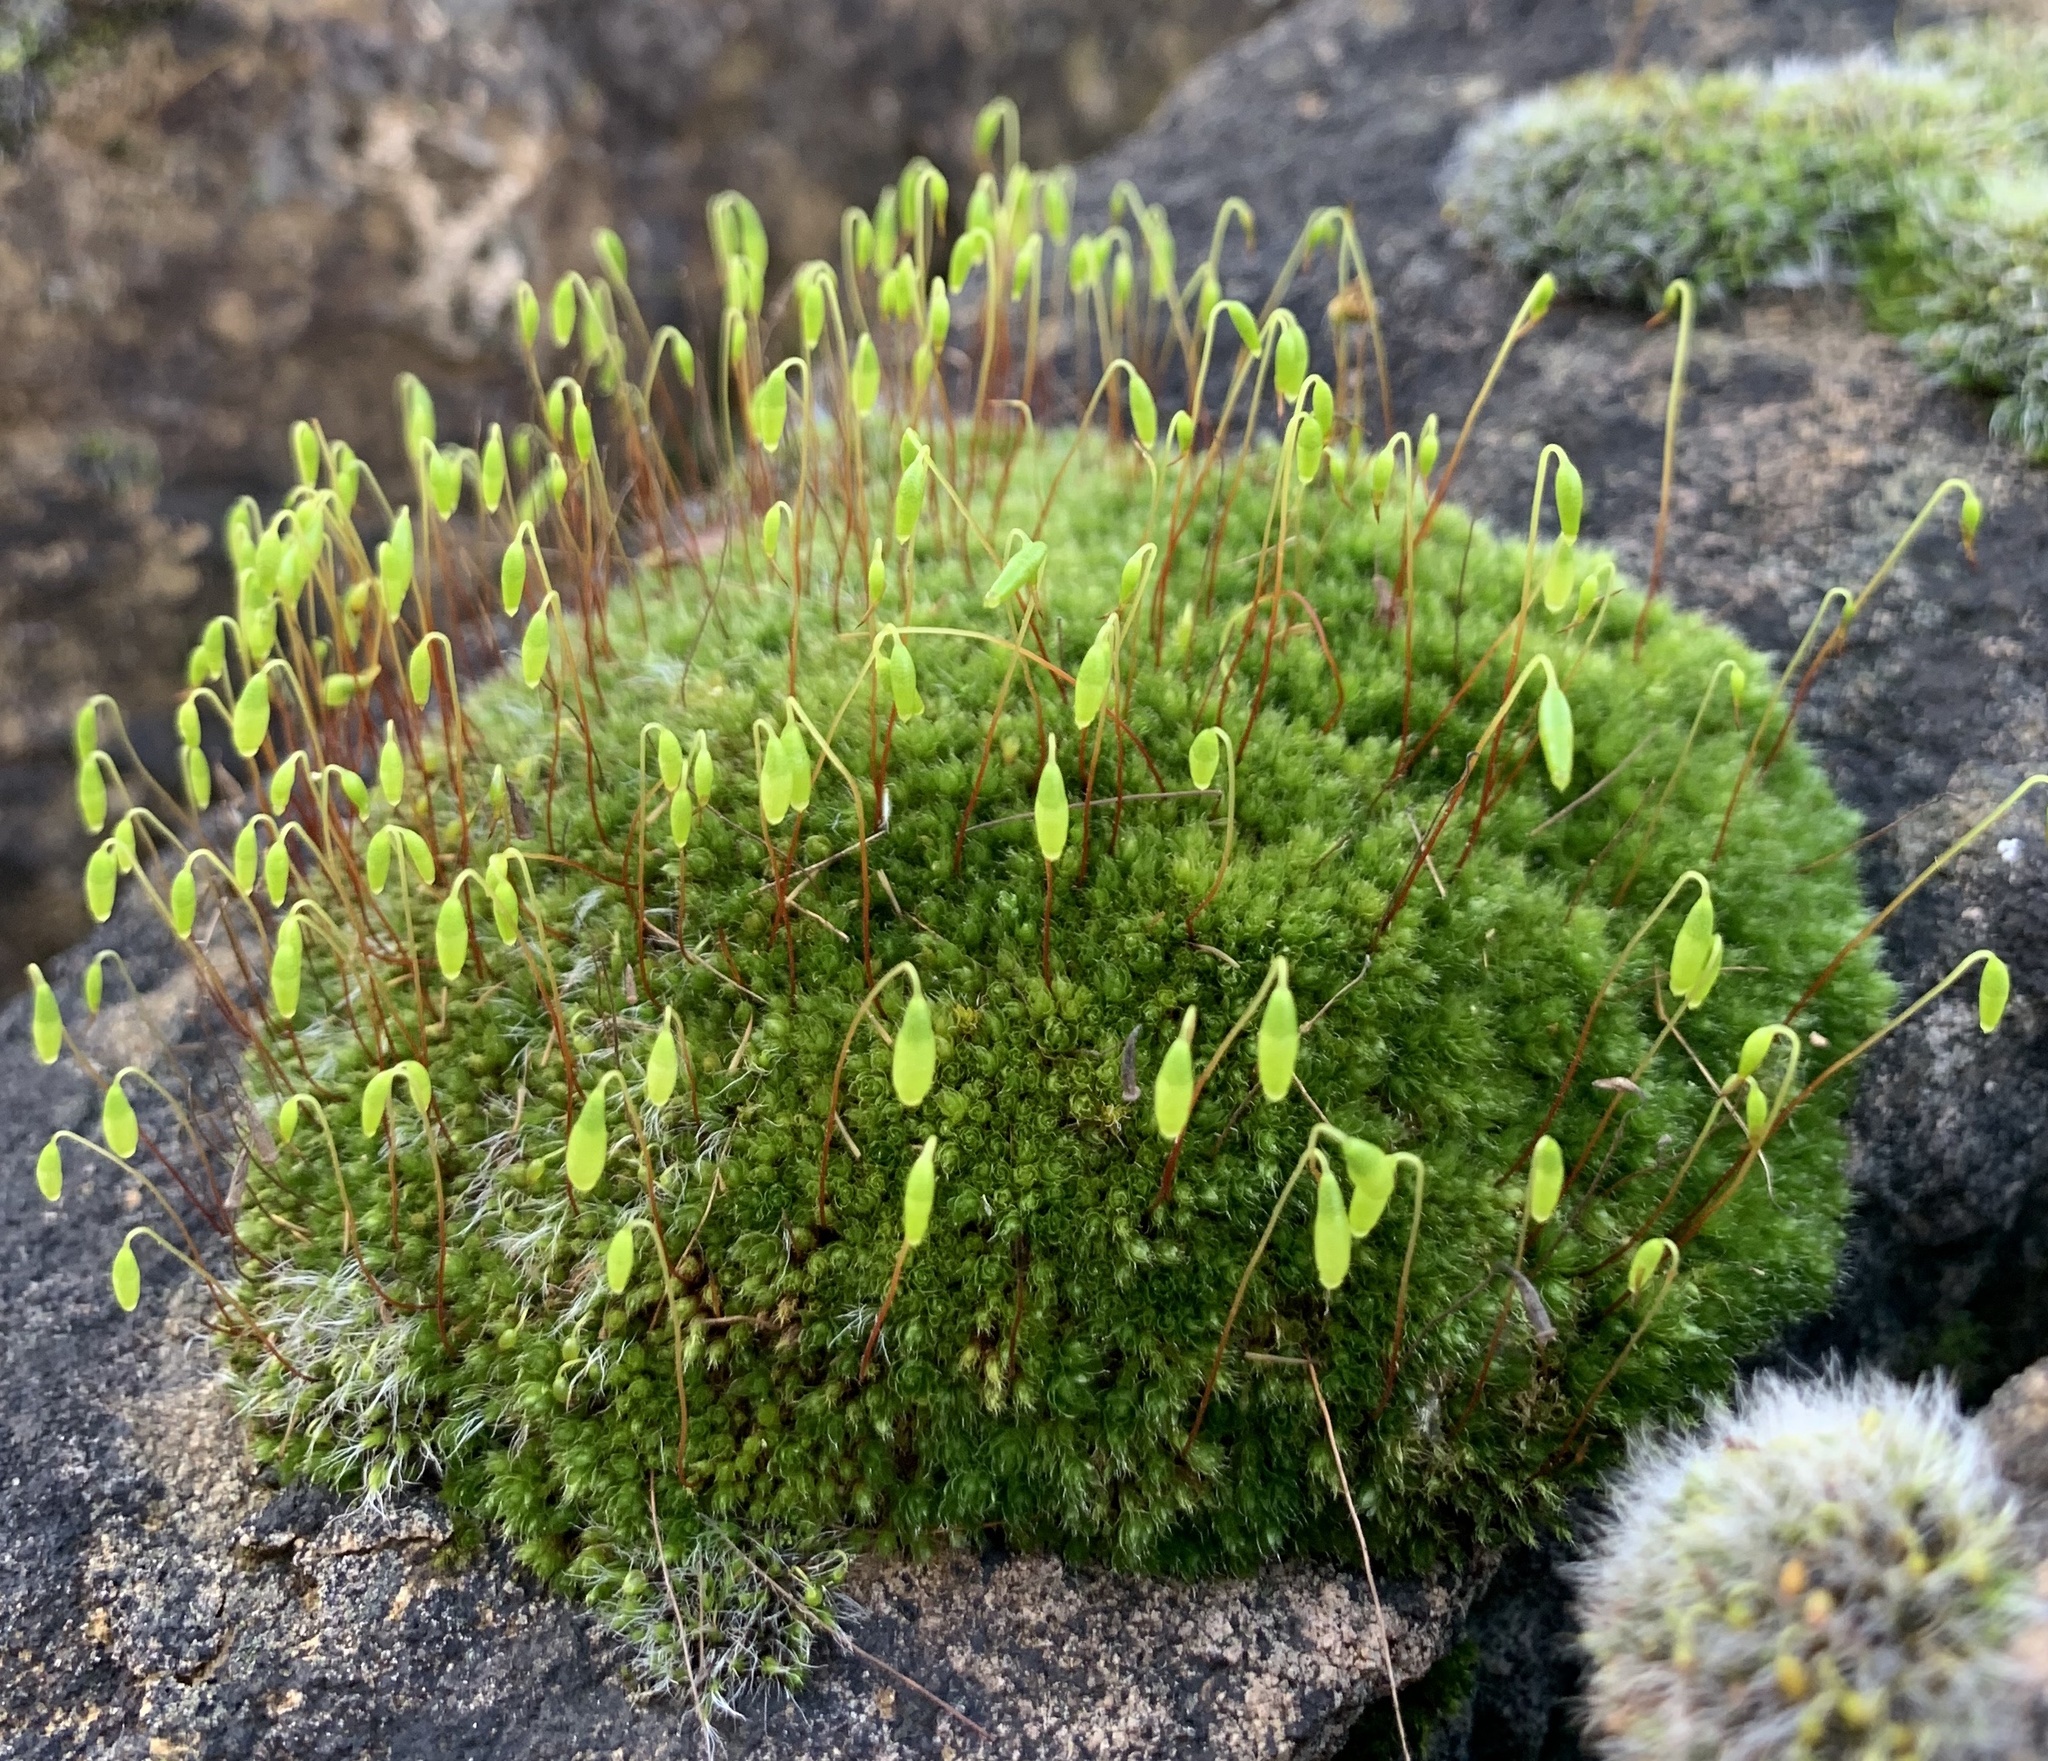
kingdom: Plantae
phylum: Bryophyta
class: Bryopsida
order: Bryales
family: Bryaceae
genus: Rosulabryum
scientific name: Rosulabryum capillare
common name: Capillary thread-moss
